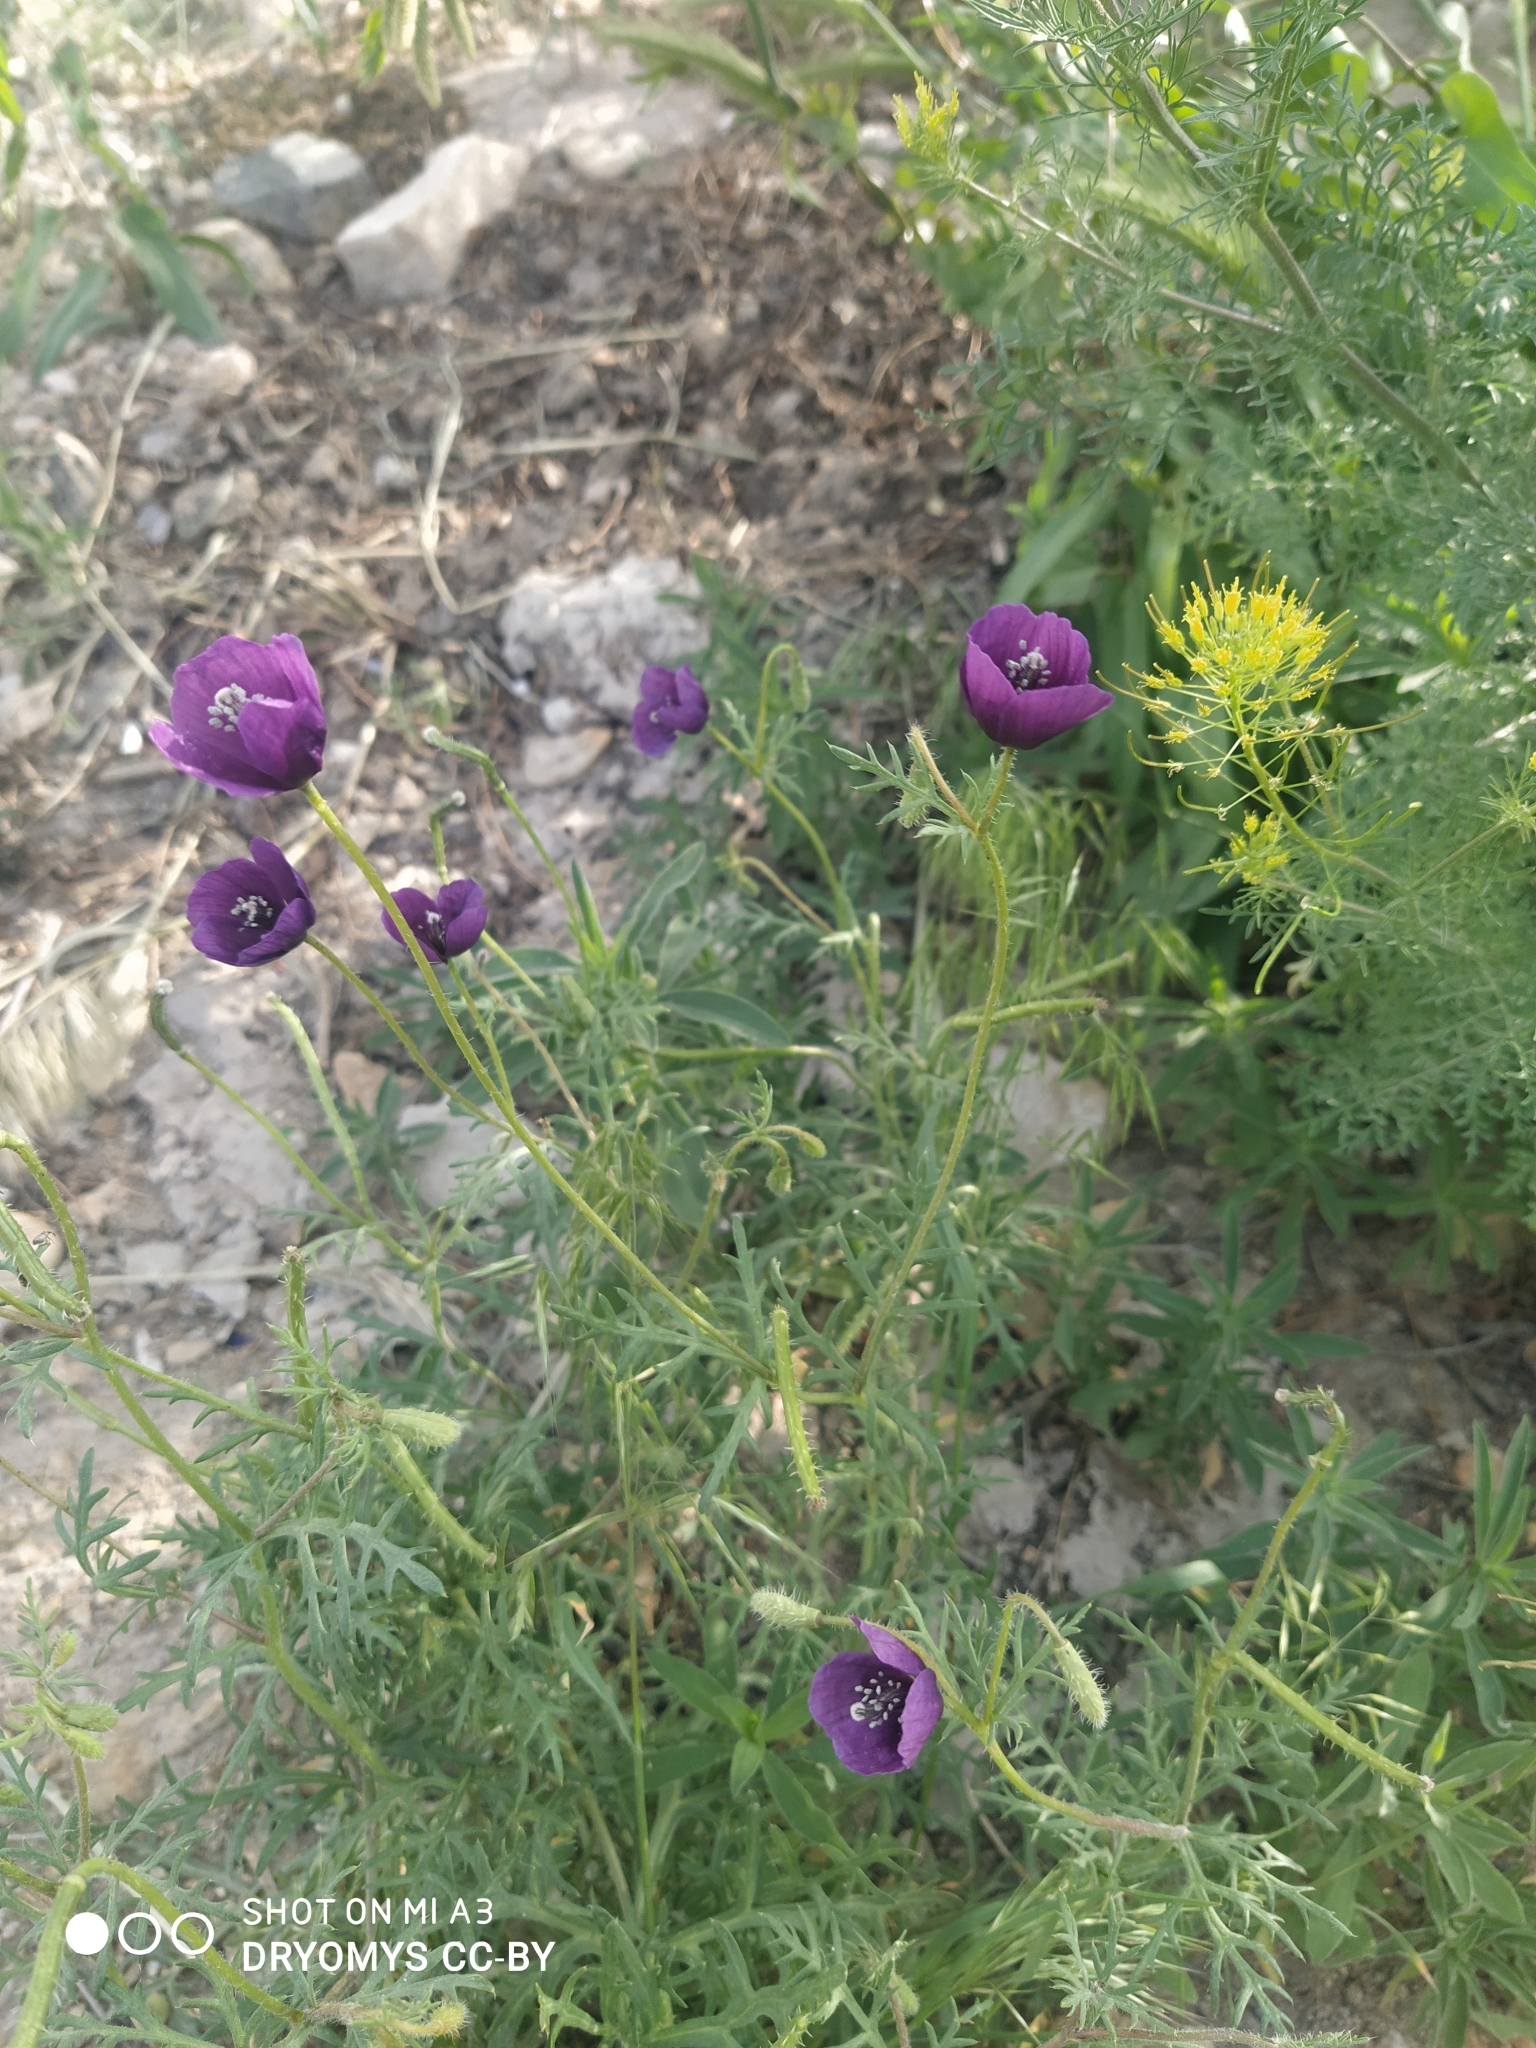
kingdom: Plantae
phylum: Tracheophyta
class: Magnoliopsida
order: Ranunculales
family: Papaveraceae
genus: Roemeria
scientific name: Roemeria hybrida
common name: Violet horned-poppy
